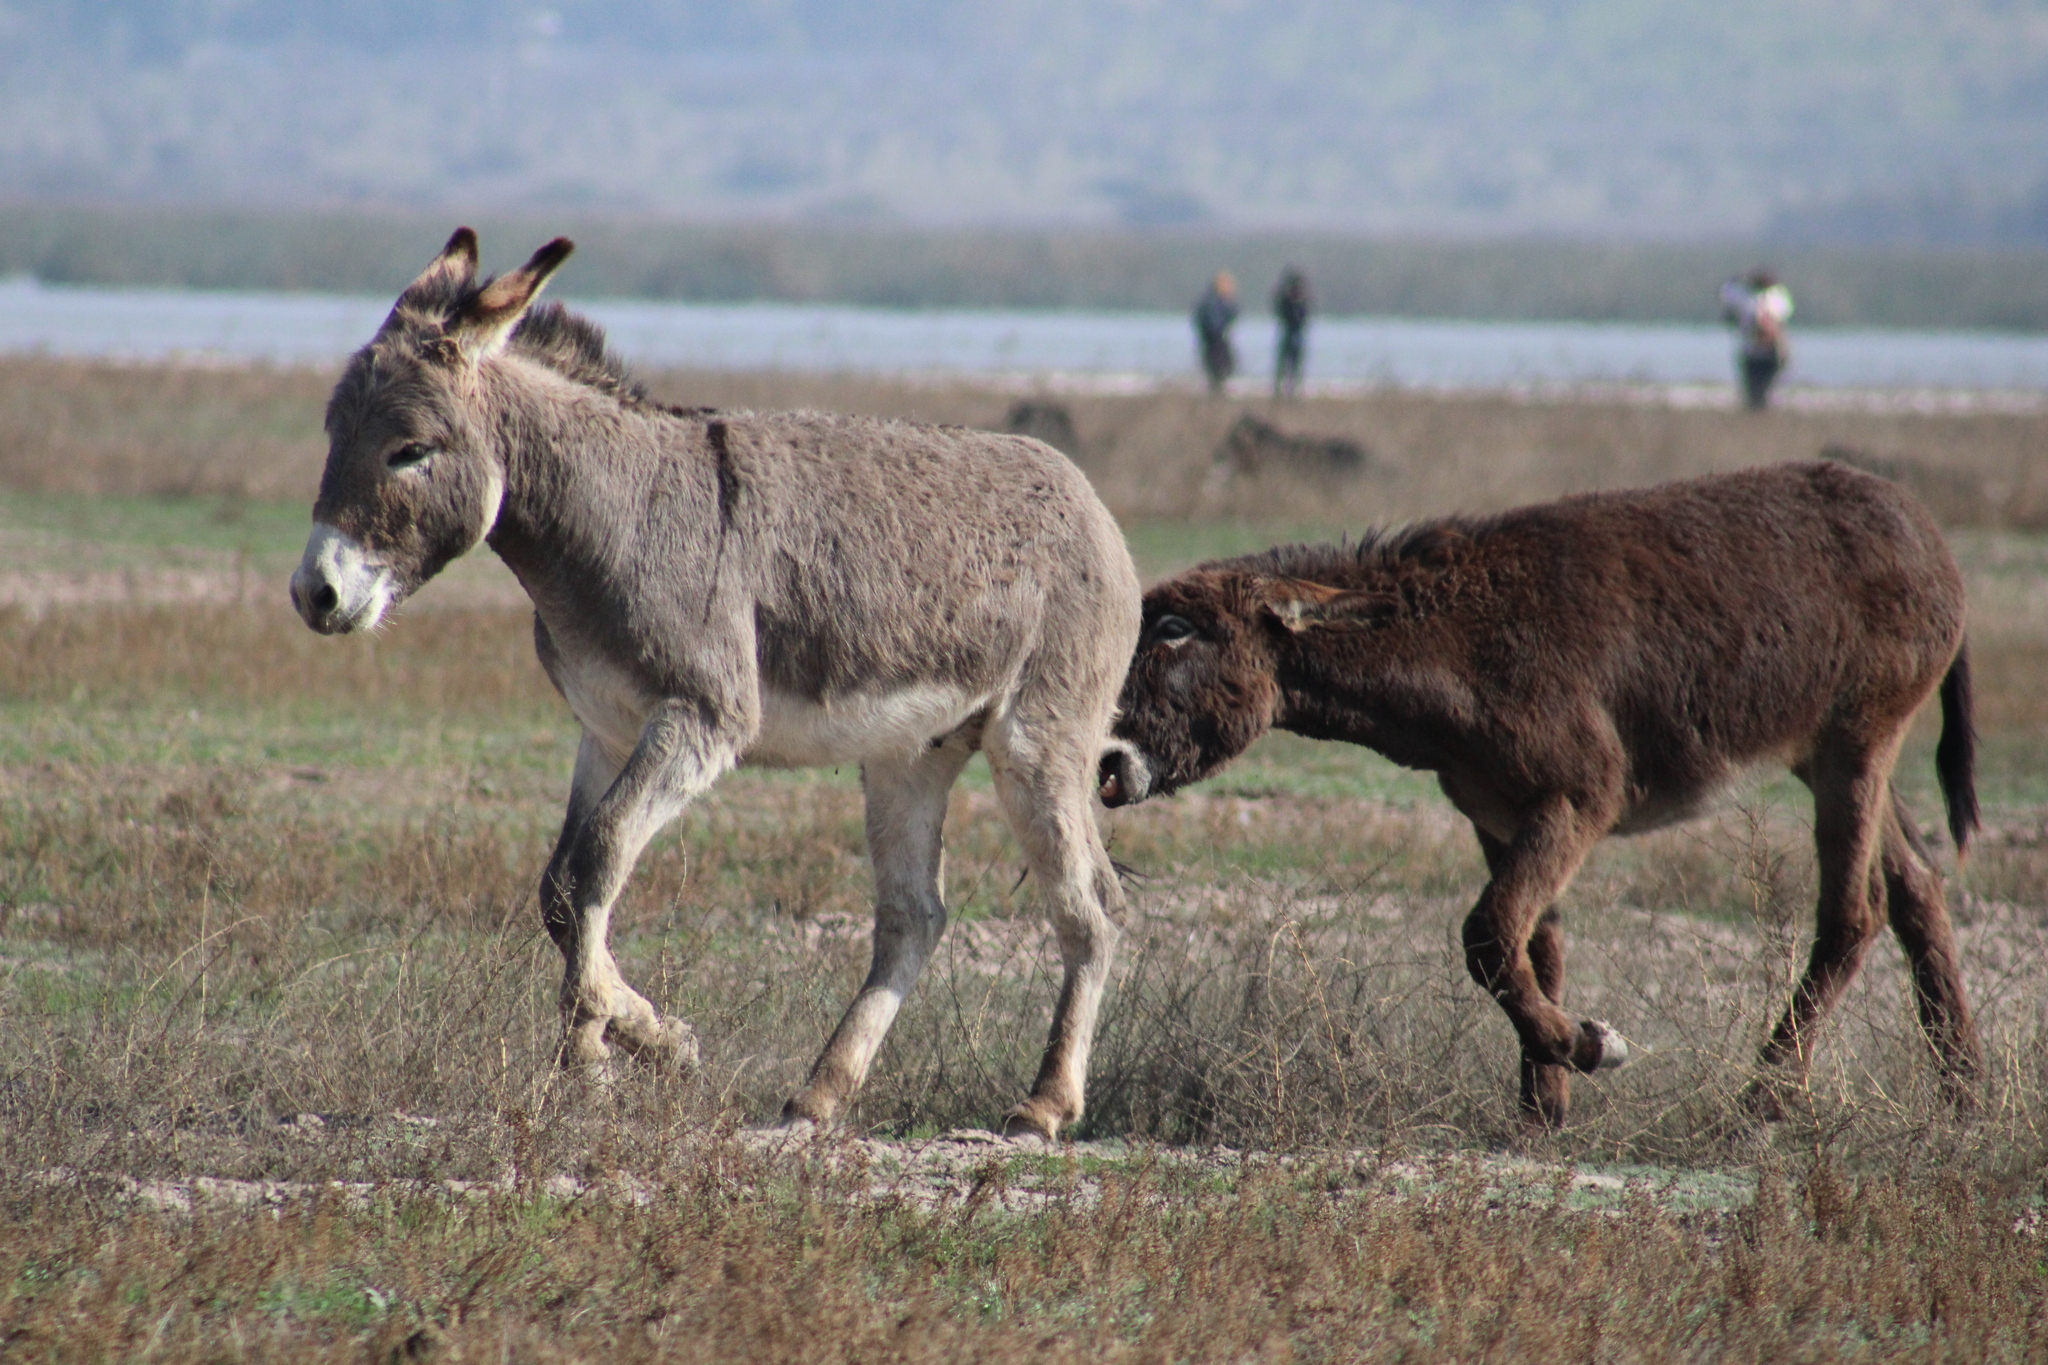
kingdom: Animalia
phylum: Chordata
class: Mammalia
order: Perissodactyla
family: Equidae
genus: Equus
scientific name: Equus asinus
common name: Ass
